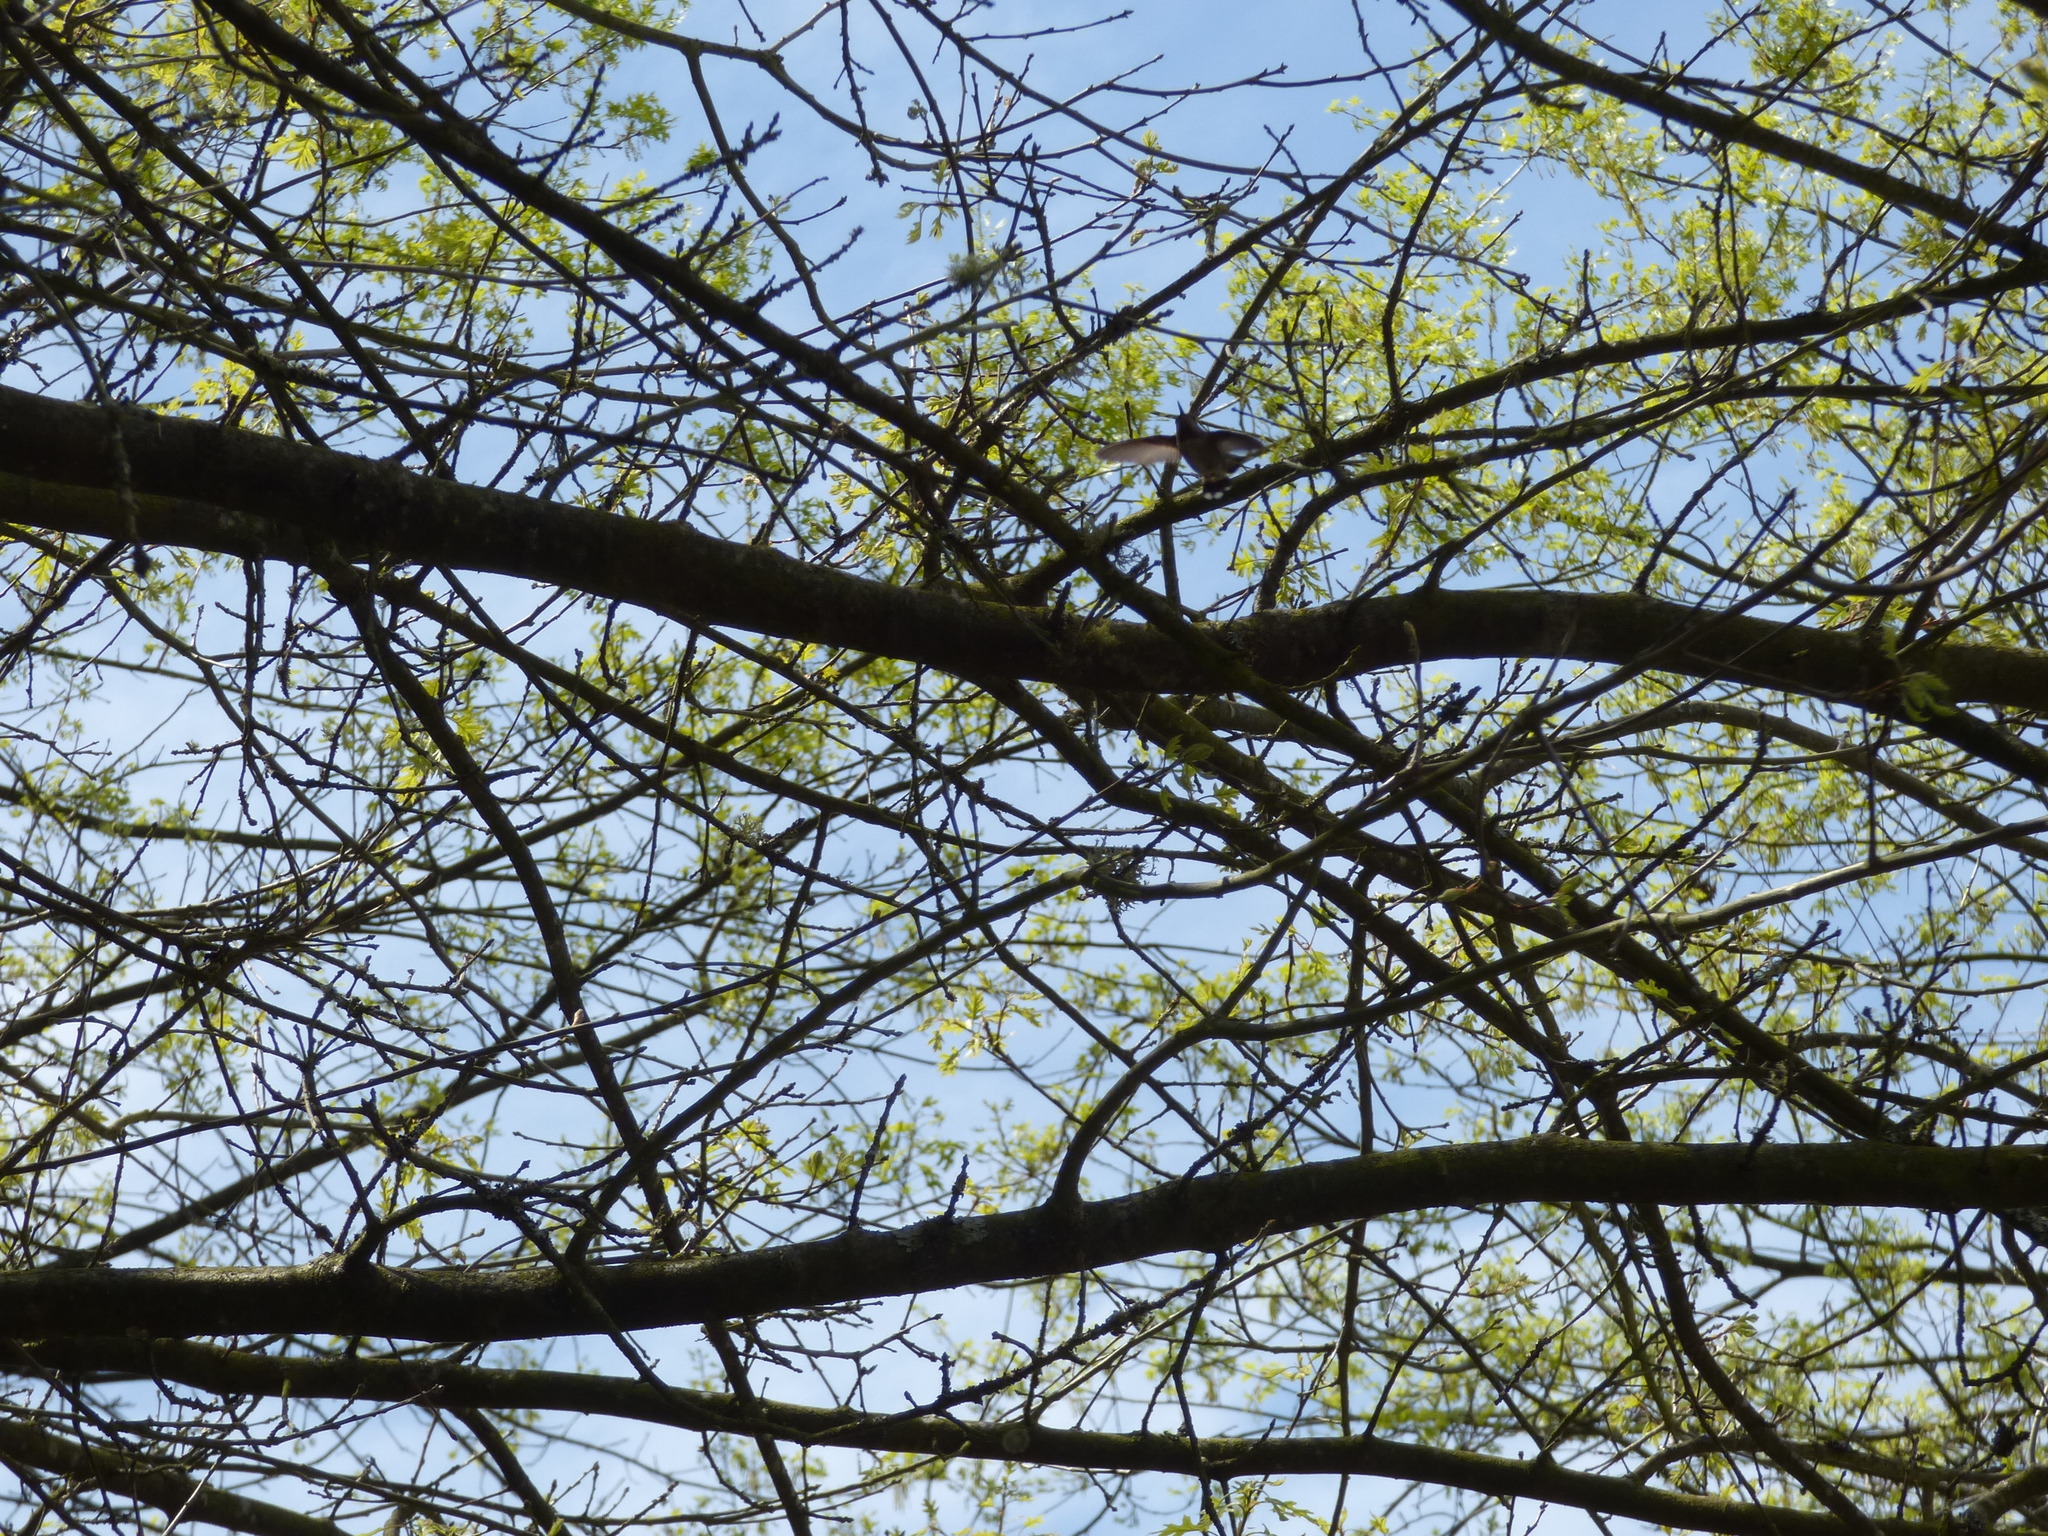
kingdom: Animalia
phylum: Chordata
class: Aves
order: Apodiformes
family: Trochilidae
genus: Calypte
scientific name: Calypte anna
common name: Anna's hummingbird
